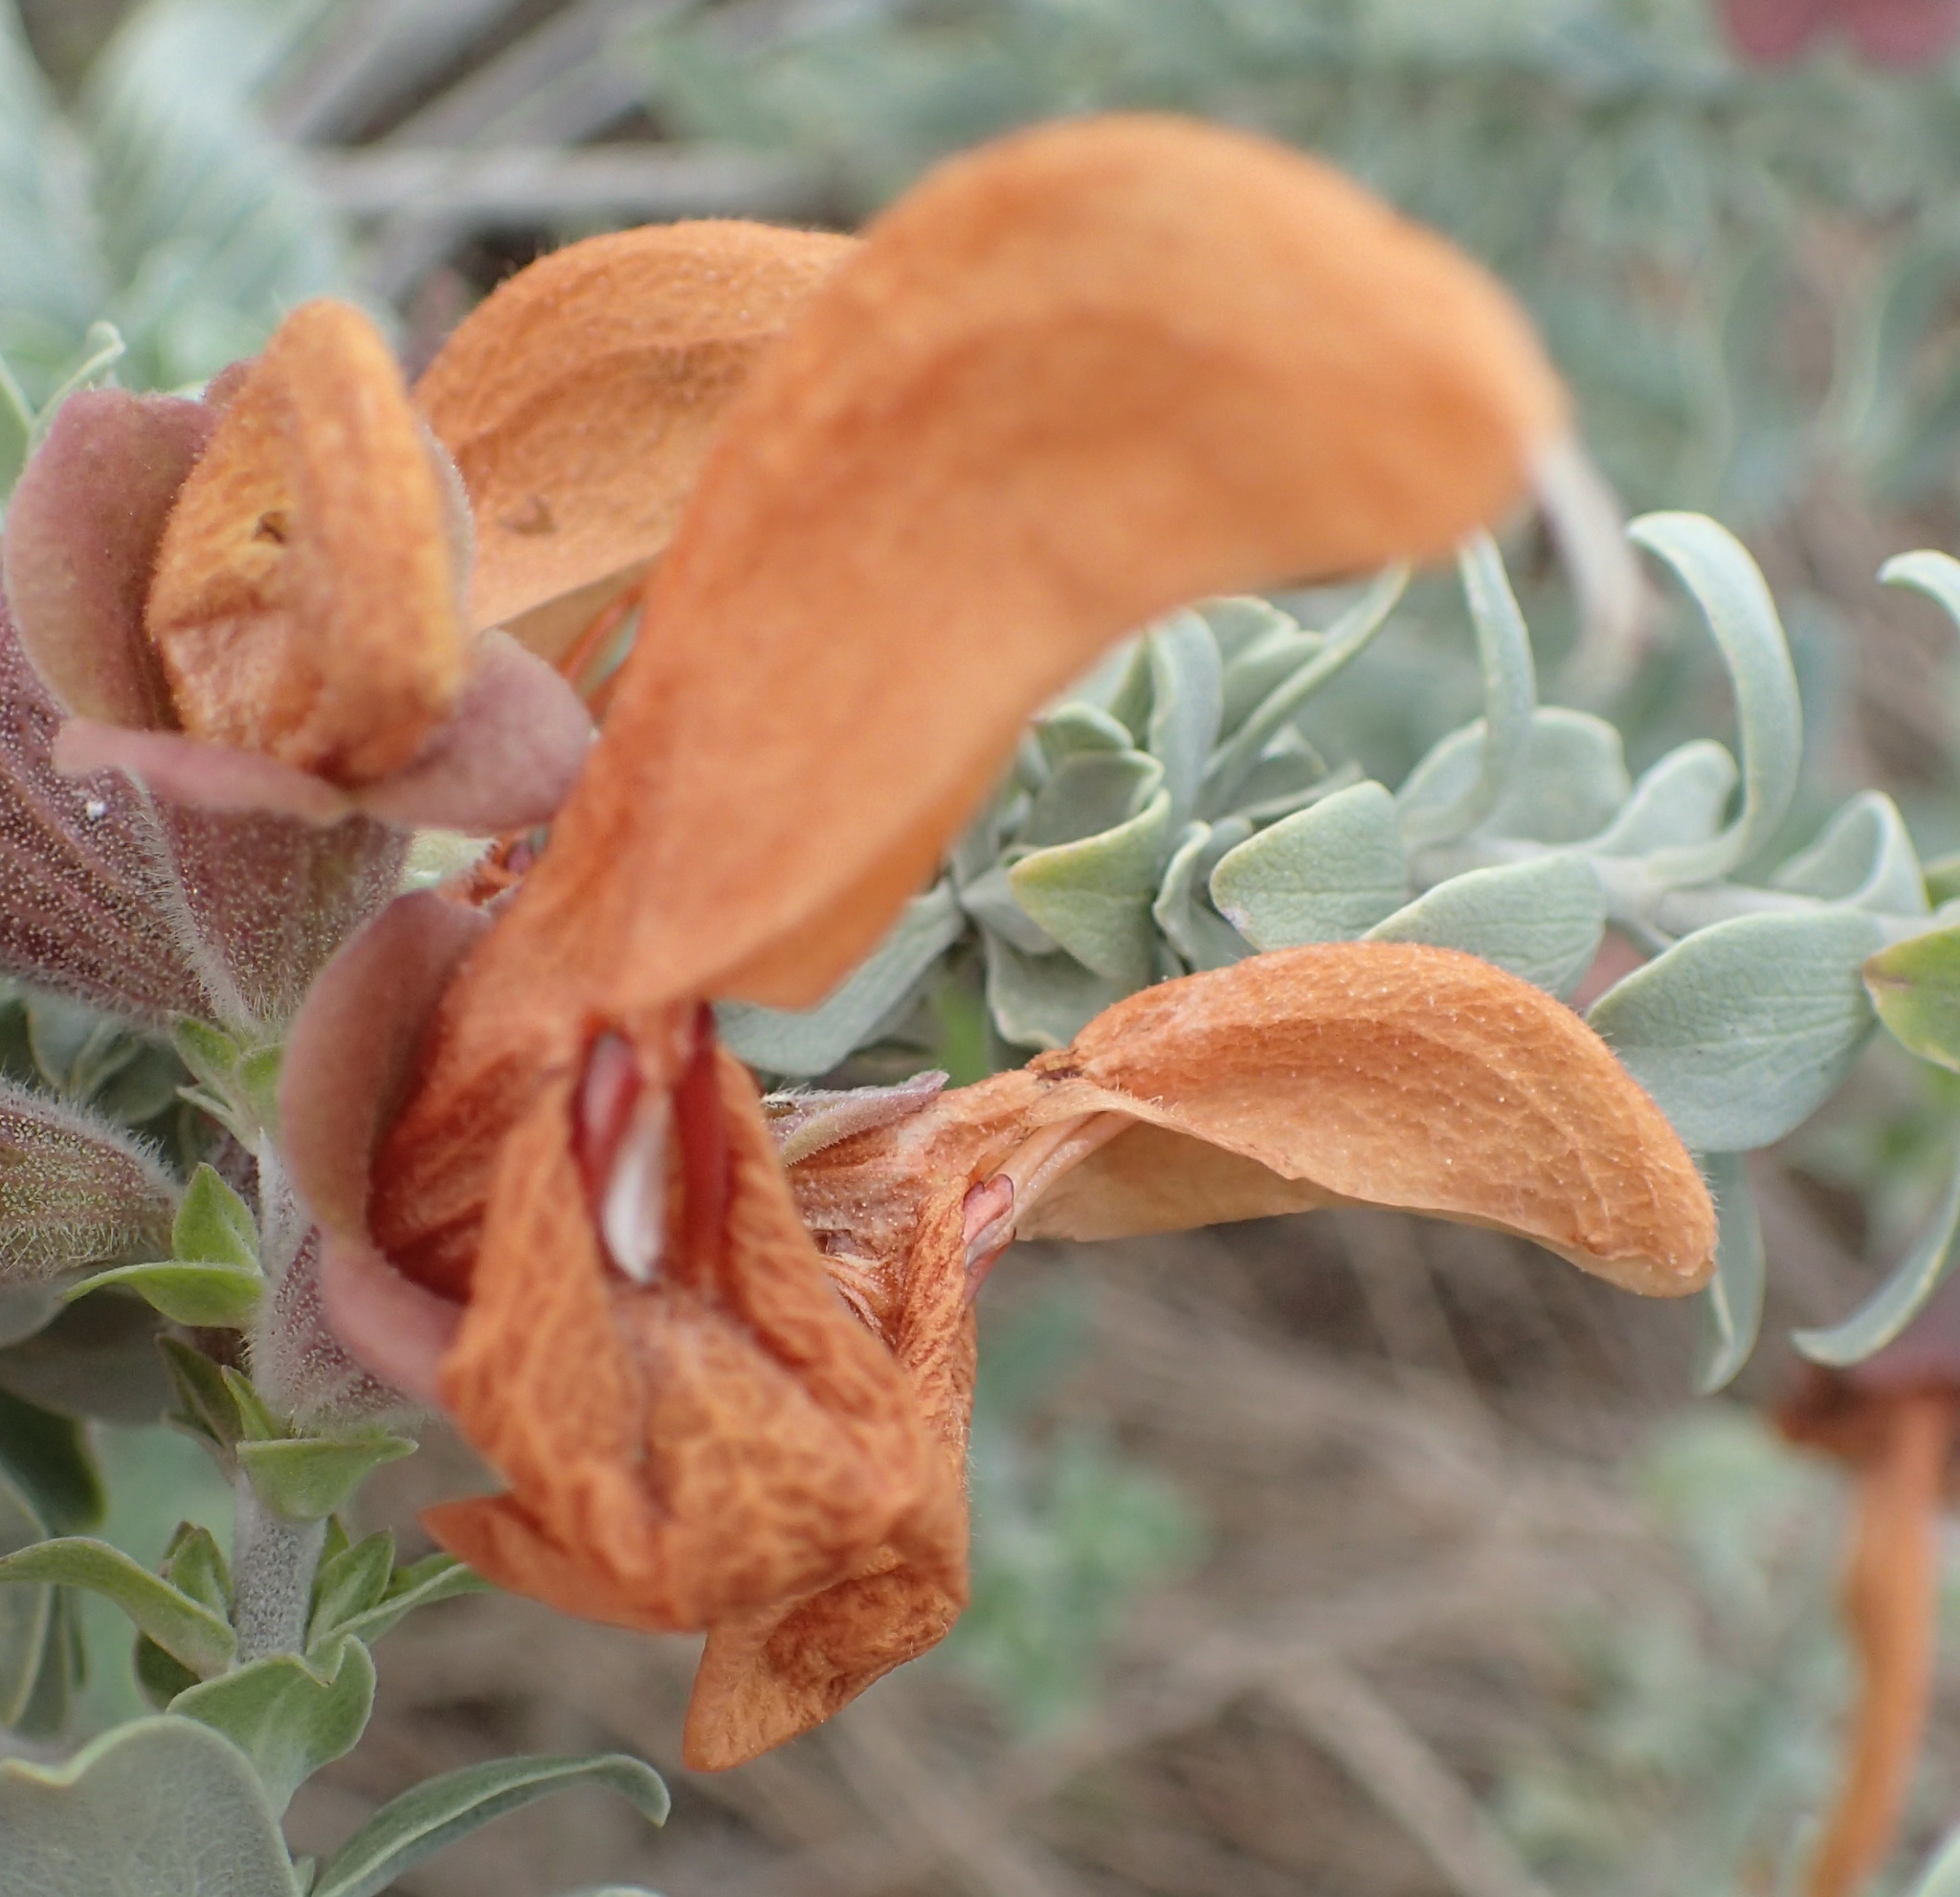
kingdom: Plantae
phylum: Tracheophyta
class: Magnoliopsida
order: Lamiales
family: Lamiaceae
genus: Salvia
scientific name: Salvia aurea
